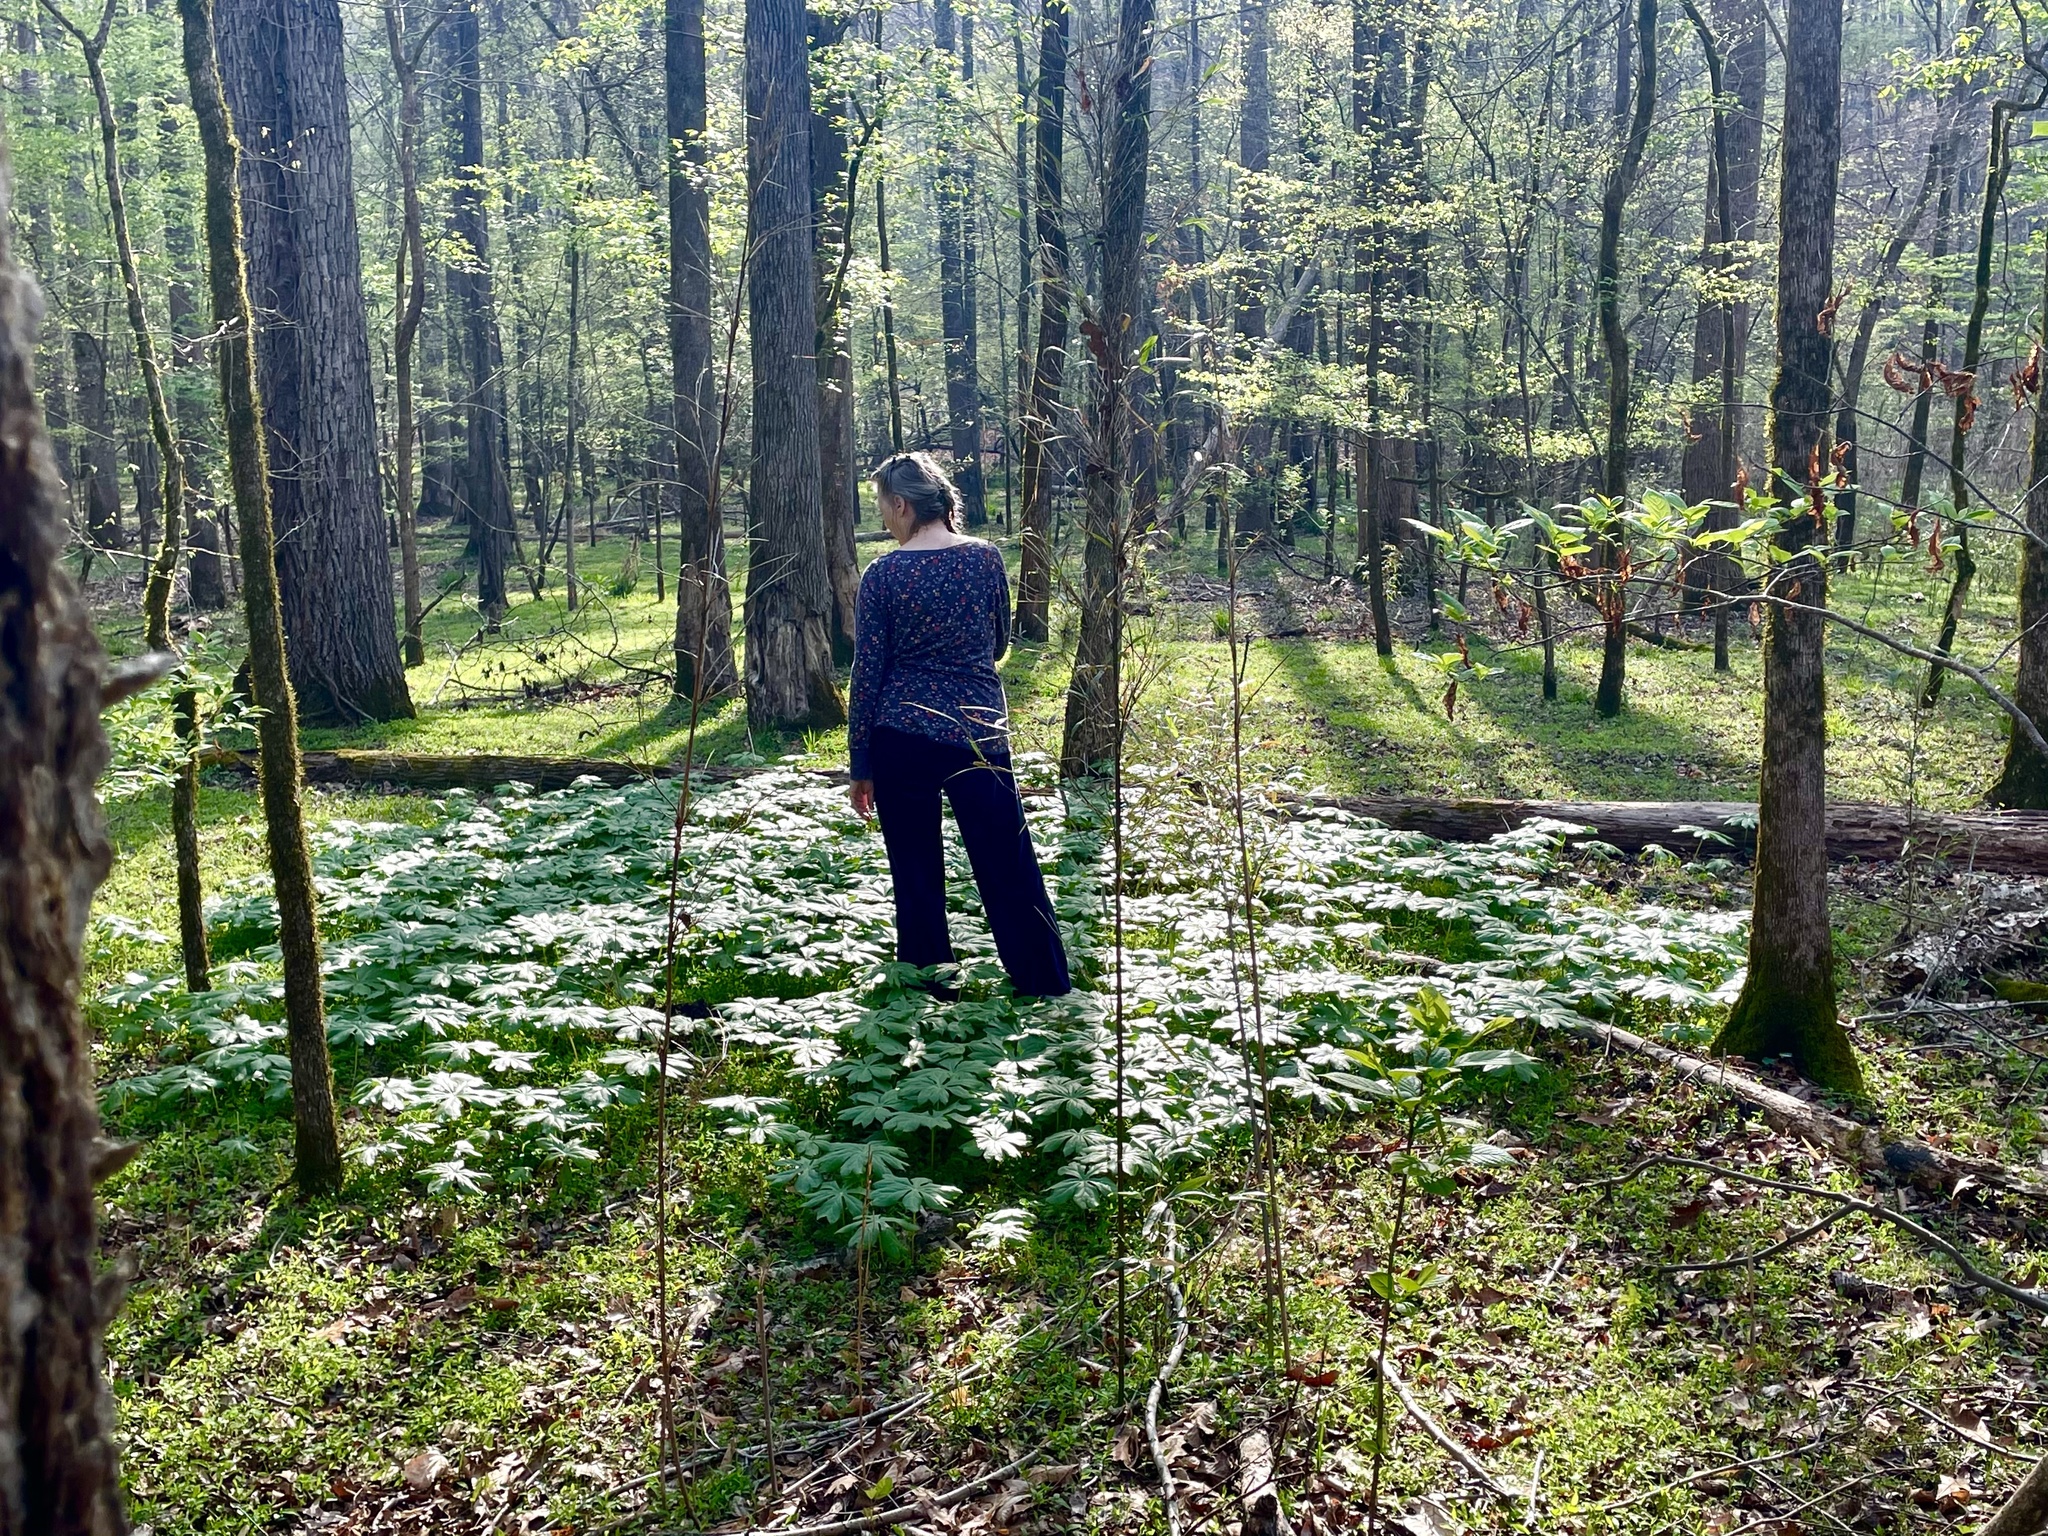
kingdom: Plantae
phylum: Tracheophyta
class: Magnoliopsida
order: Ranunculales
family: Berberidaceae
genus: Podophyllum
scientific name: Podophyllum peltatum
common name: Wild mandrake
